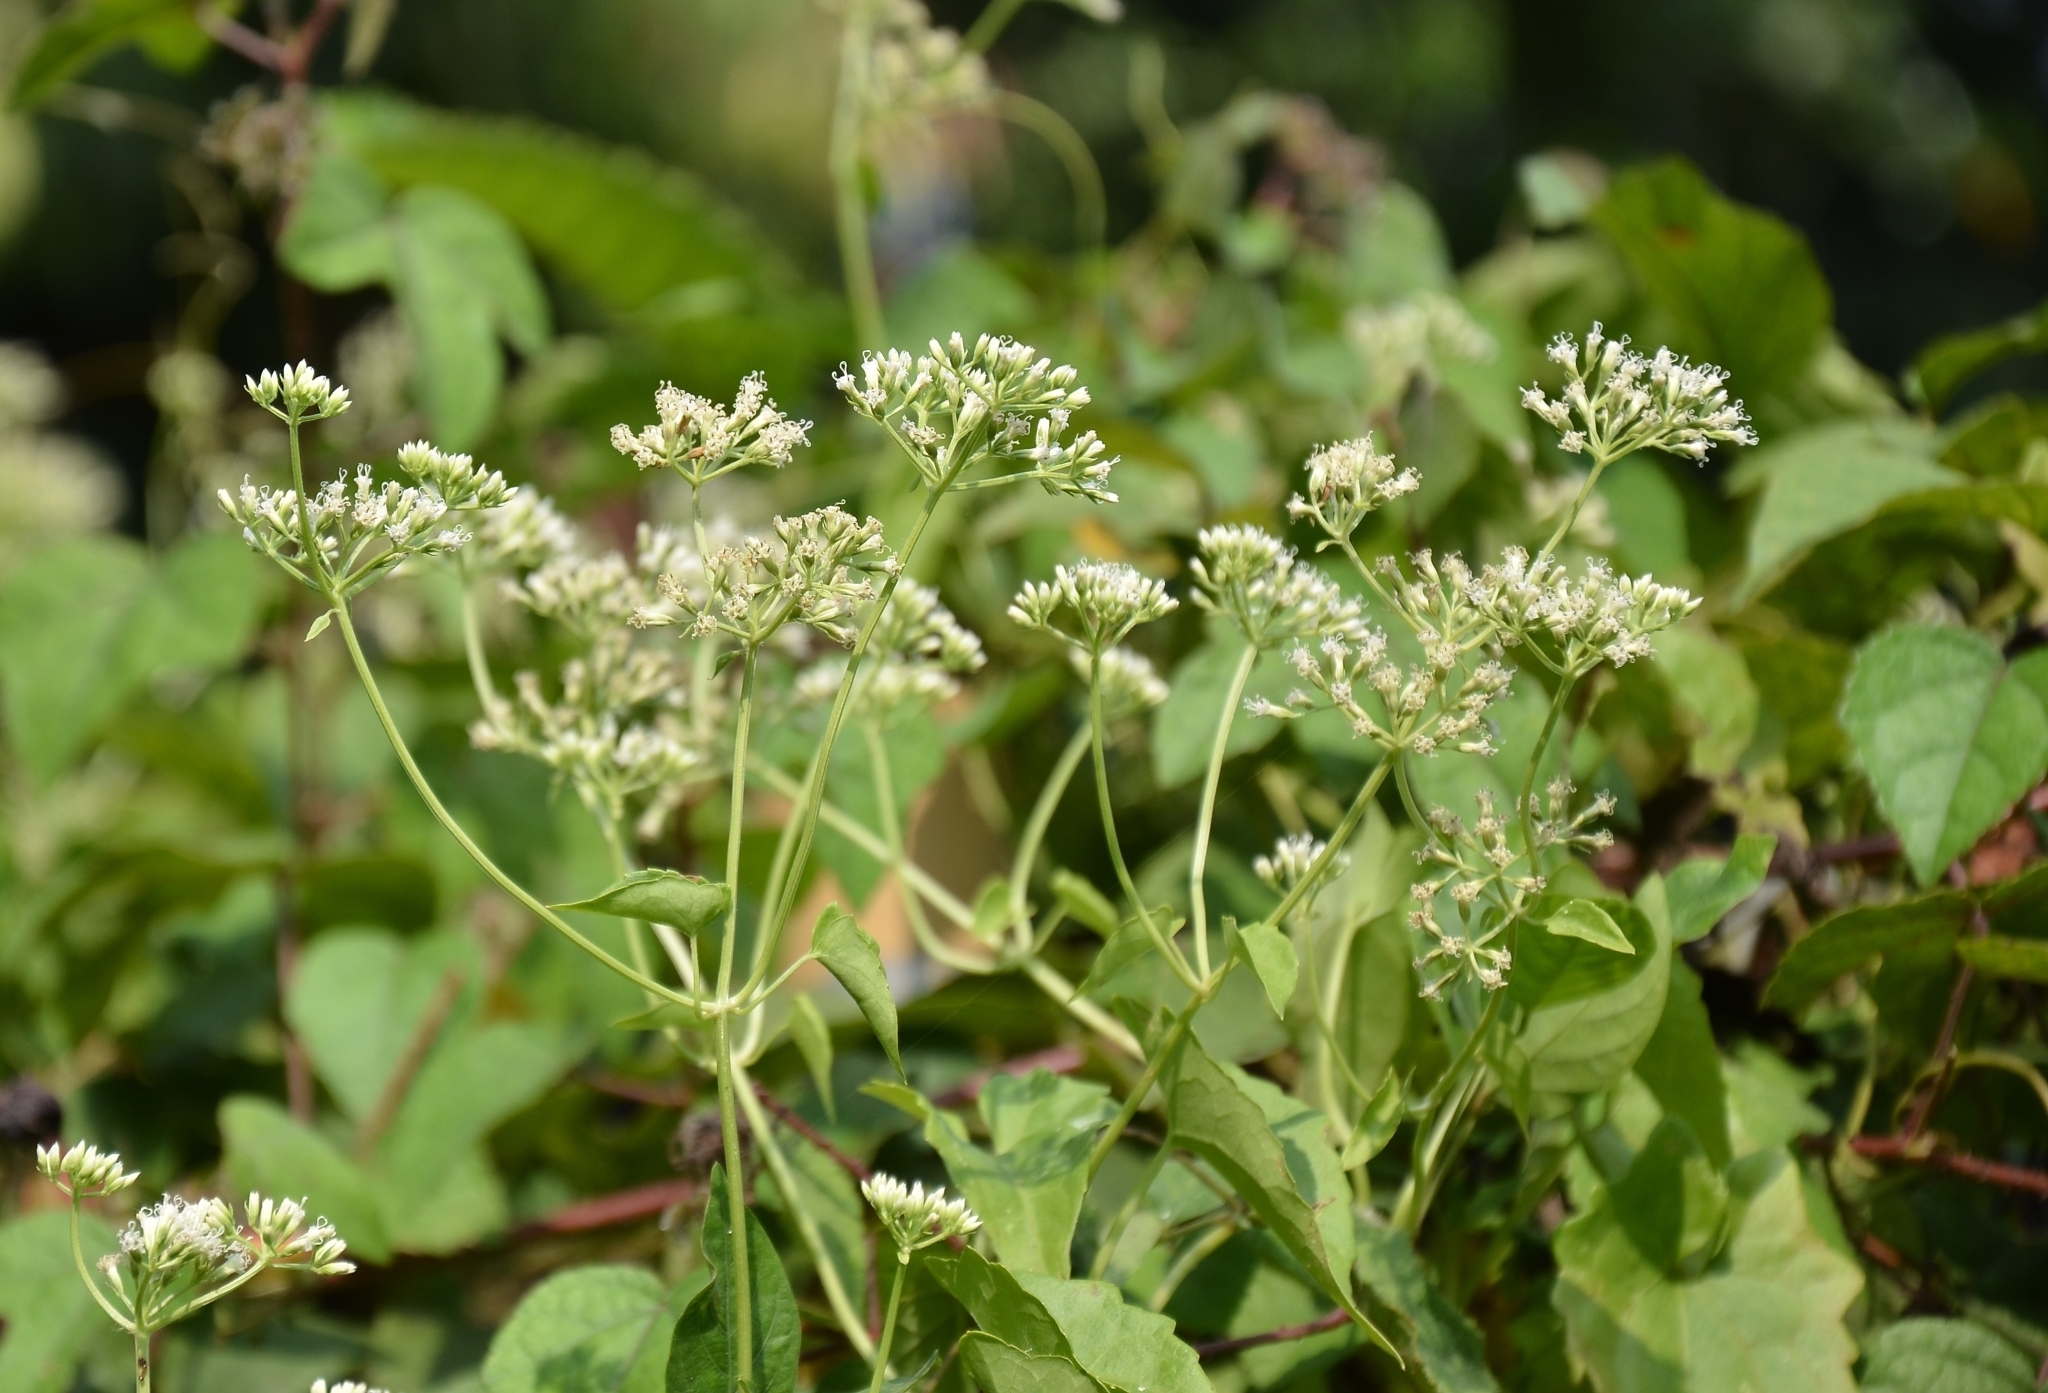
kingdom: Plantae
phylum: Tracheophyta
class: Magnoliopsida
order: Asterales
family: Asteraceae
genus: Mikania
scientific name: Mikania micrantha
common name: Mile-a-minute
